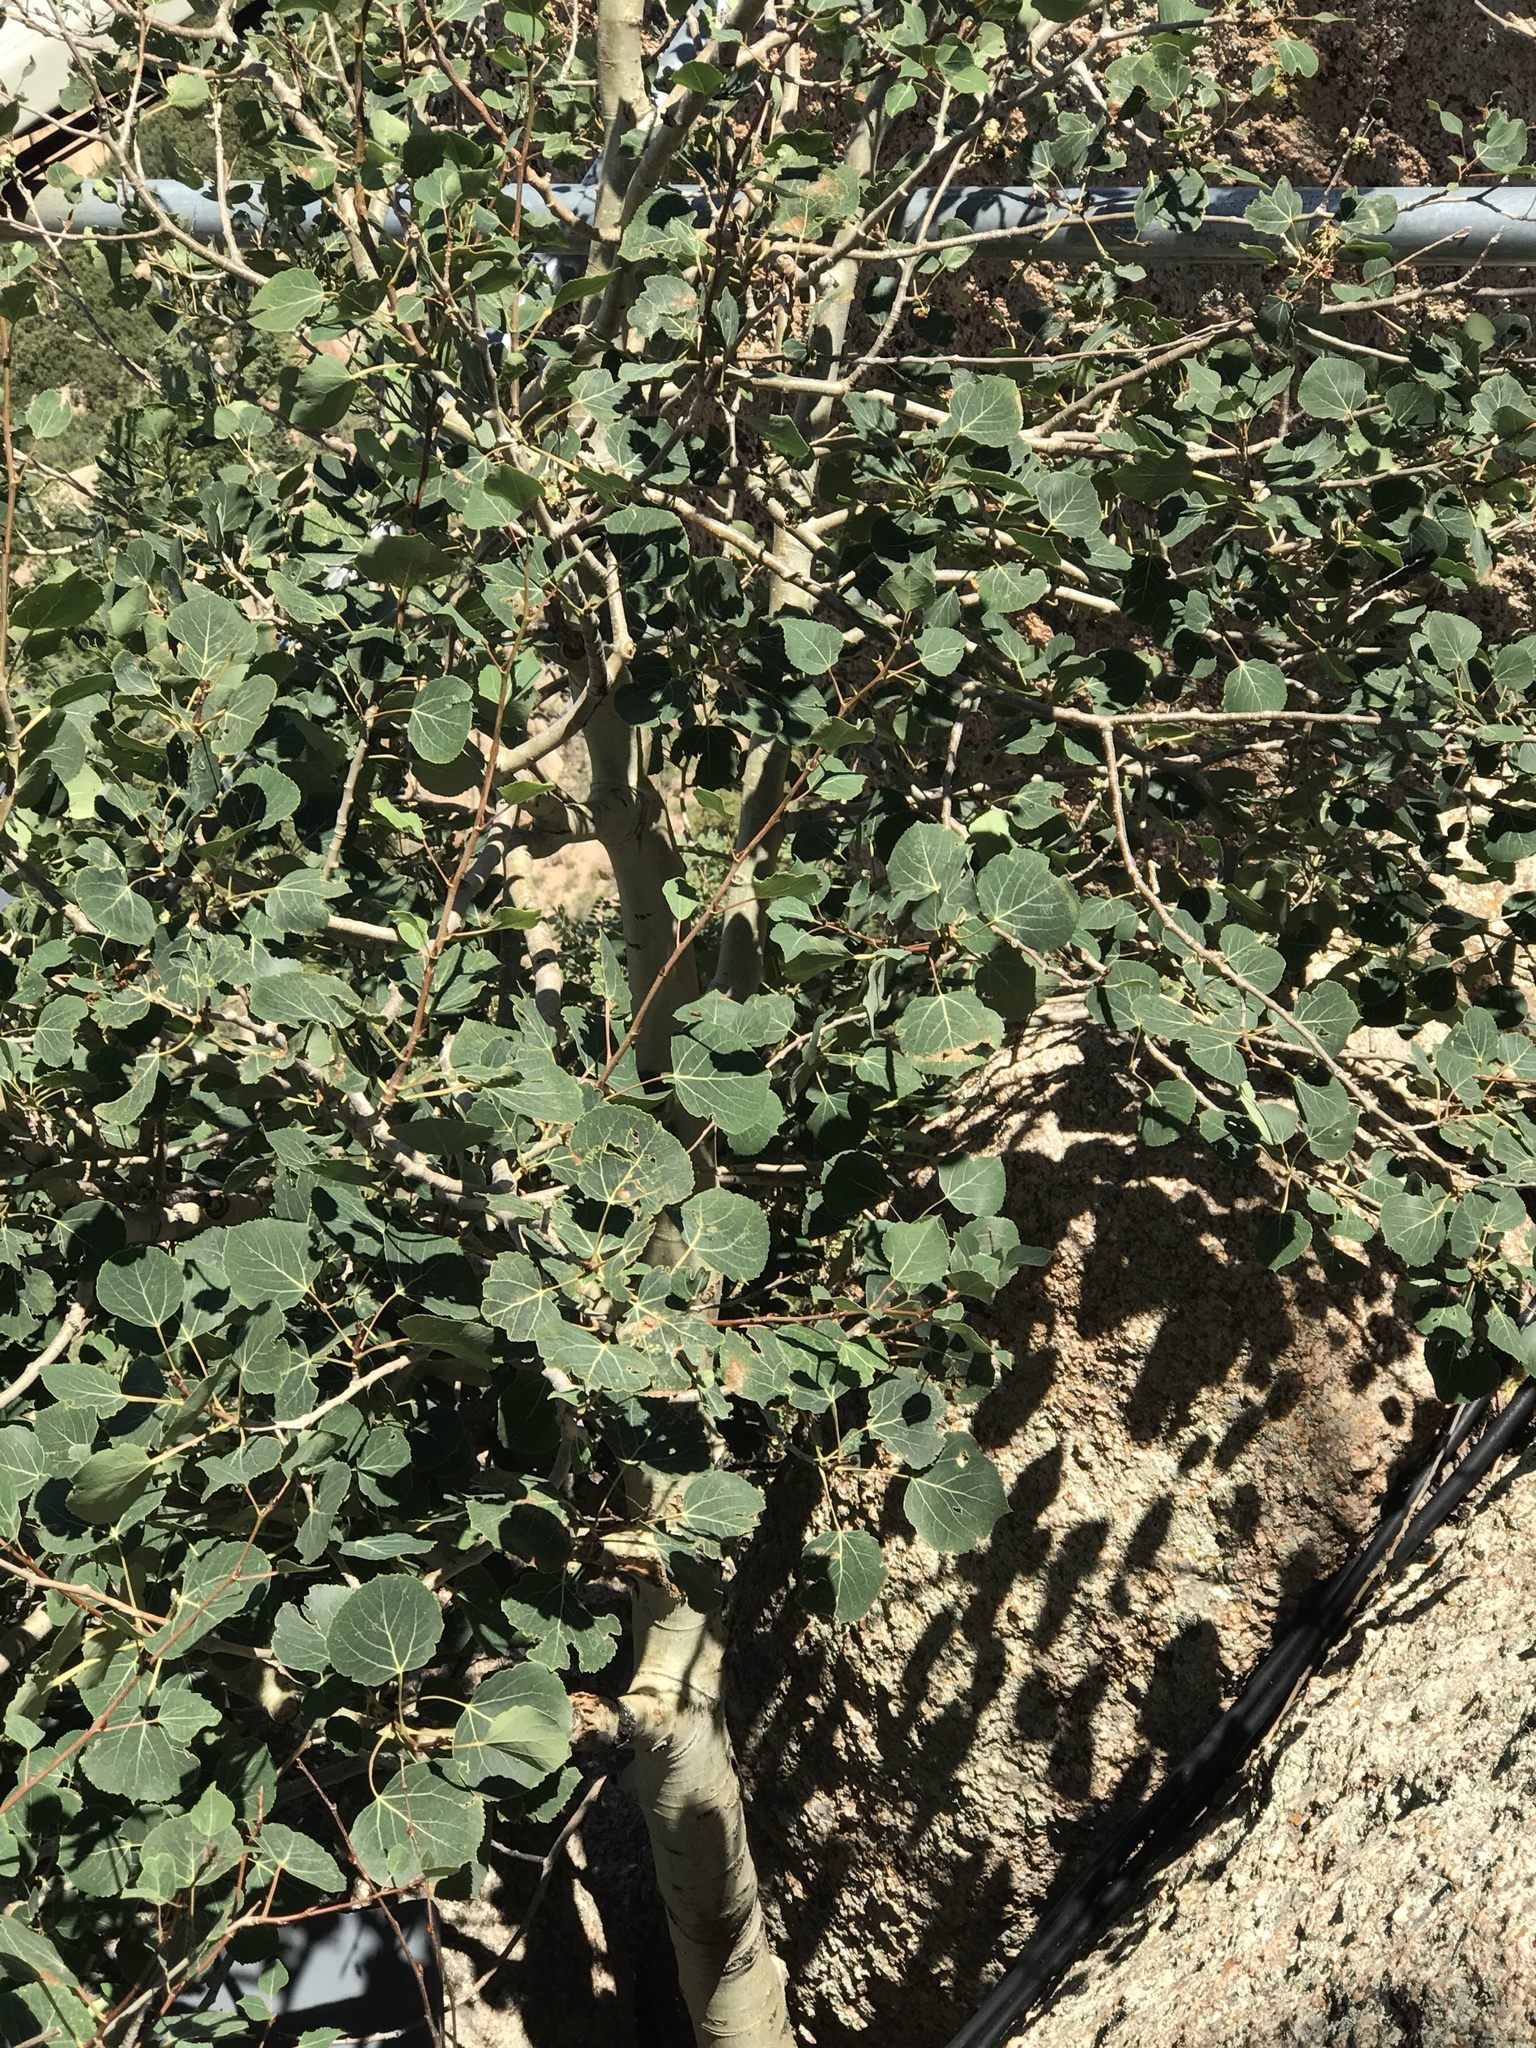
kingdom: Plantae
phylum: Tracheophyta
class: Magnoliopsida
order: Malpighiales
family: Salicaceae
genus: Populus
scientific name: Populus tremuloides
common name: Quaking aspen
